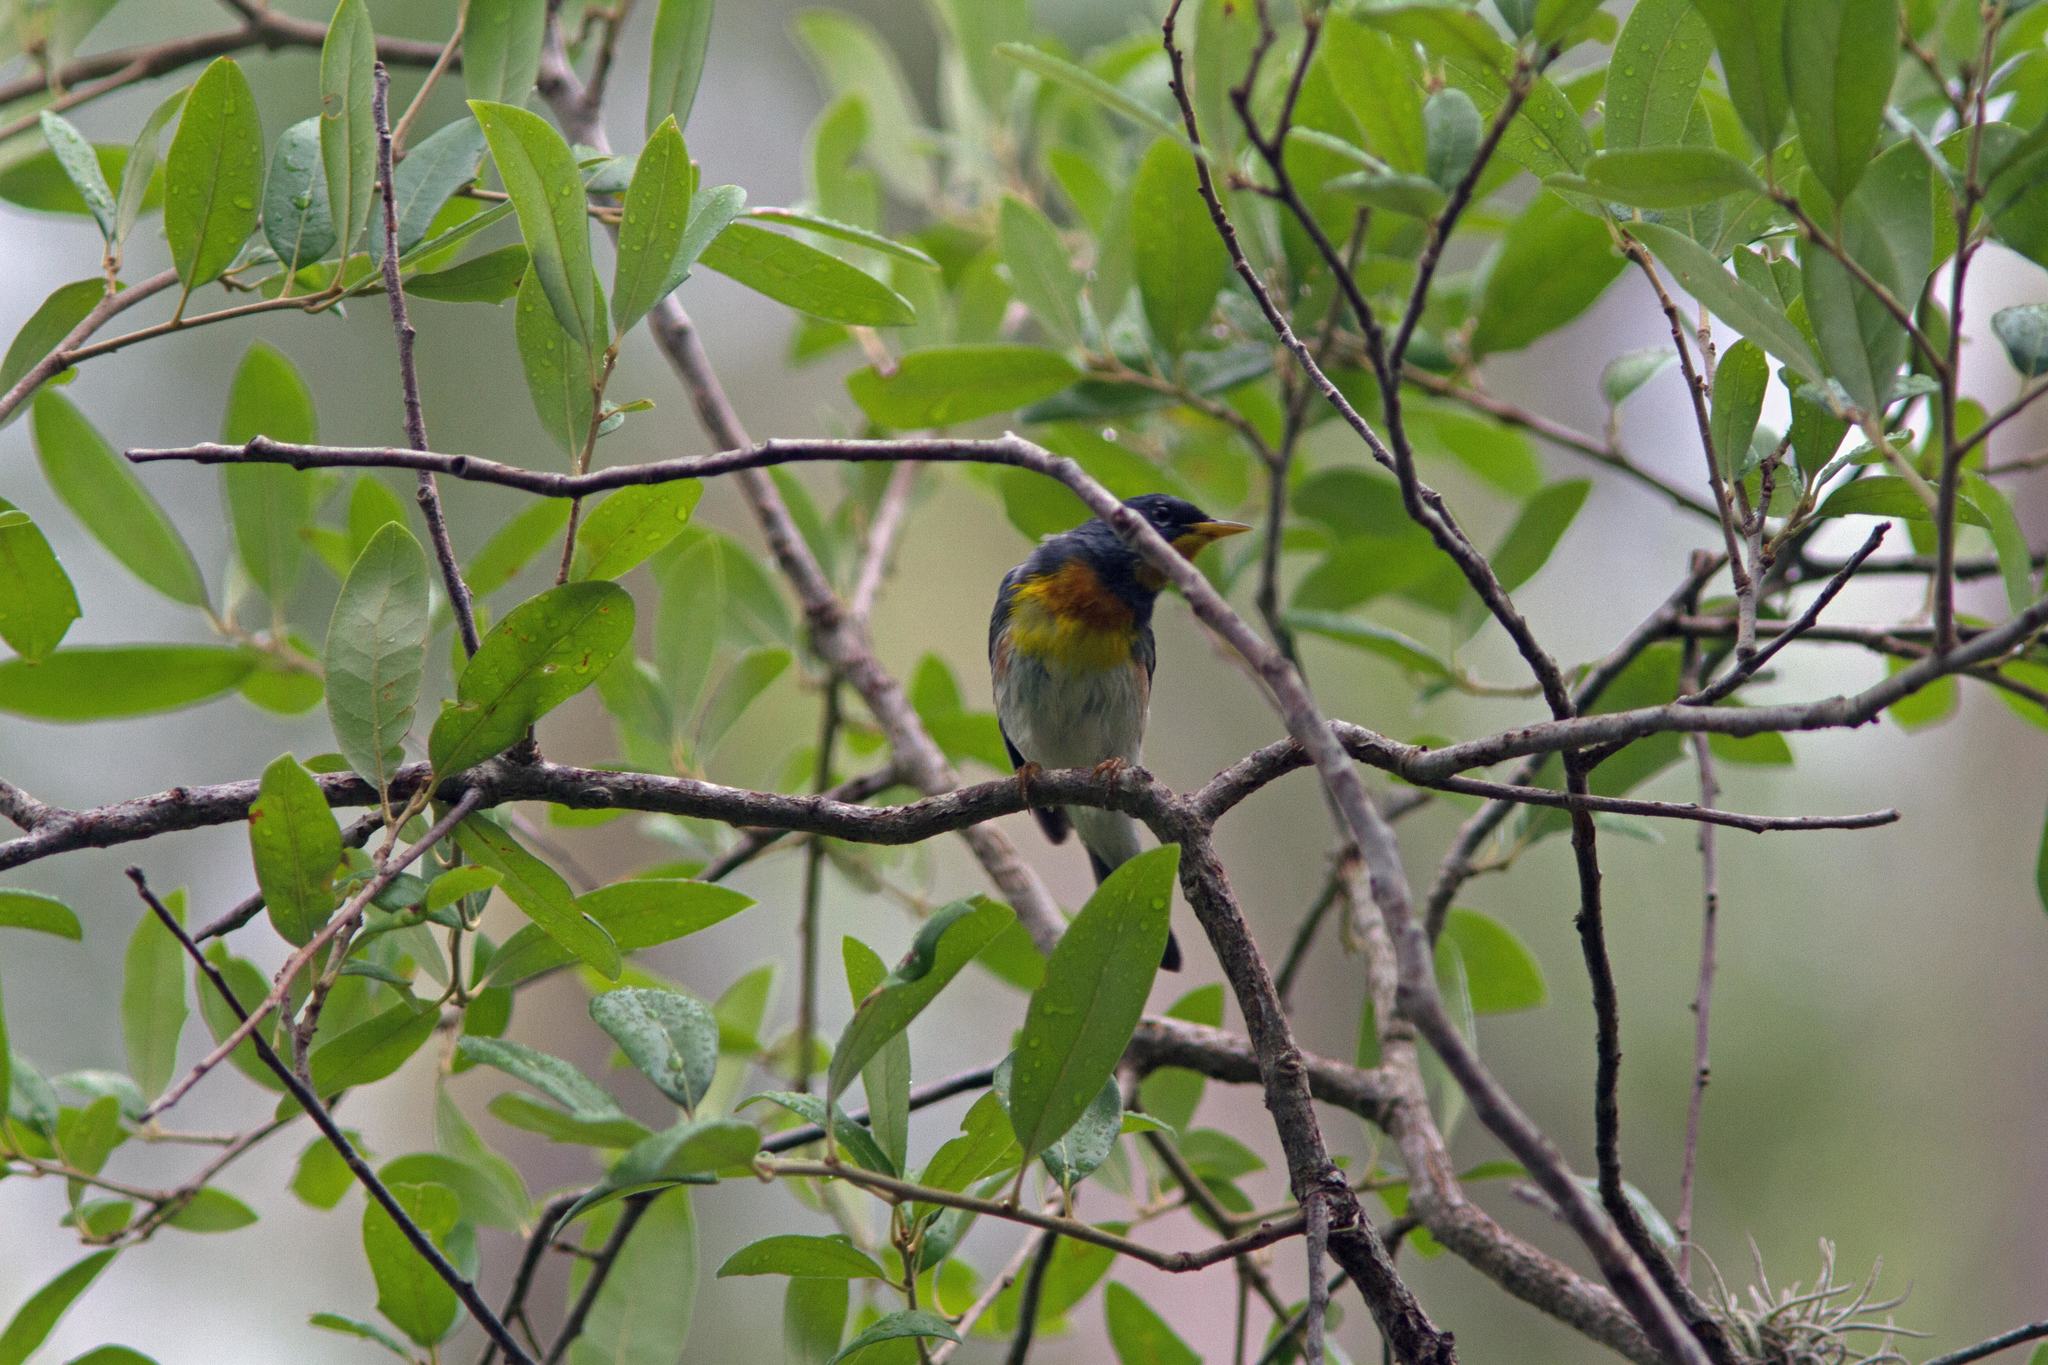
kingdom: Animalia
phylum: Chordata
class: Aves
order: Passeriformes
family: Parulidae
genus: Setophaga
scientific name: Setophaga americana
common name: Northern parula
